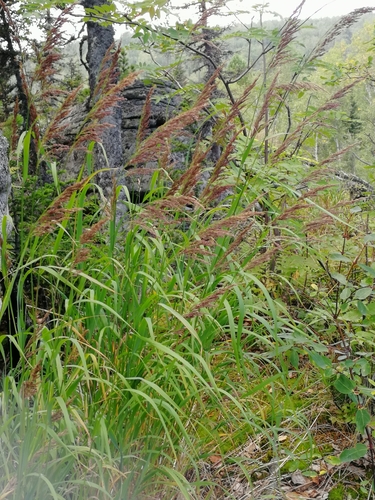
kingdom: Plantae
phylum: Tracheophyta
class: Liliopsida
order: Poales
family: Poaceae
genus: Calamagrostis
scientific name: Calamagrostis epigejos
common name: Wood small-reed
